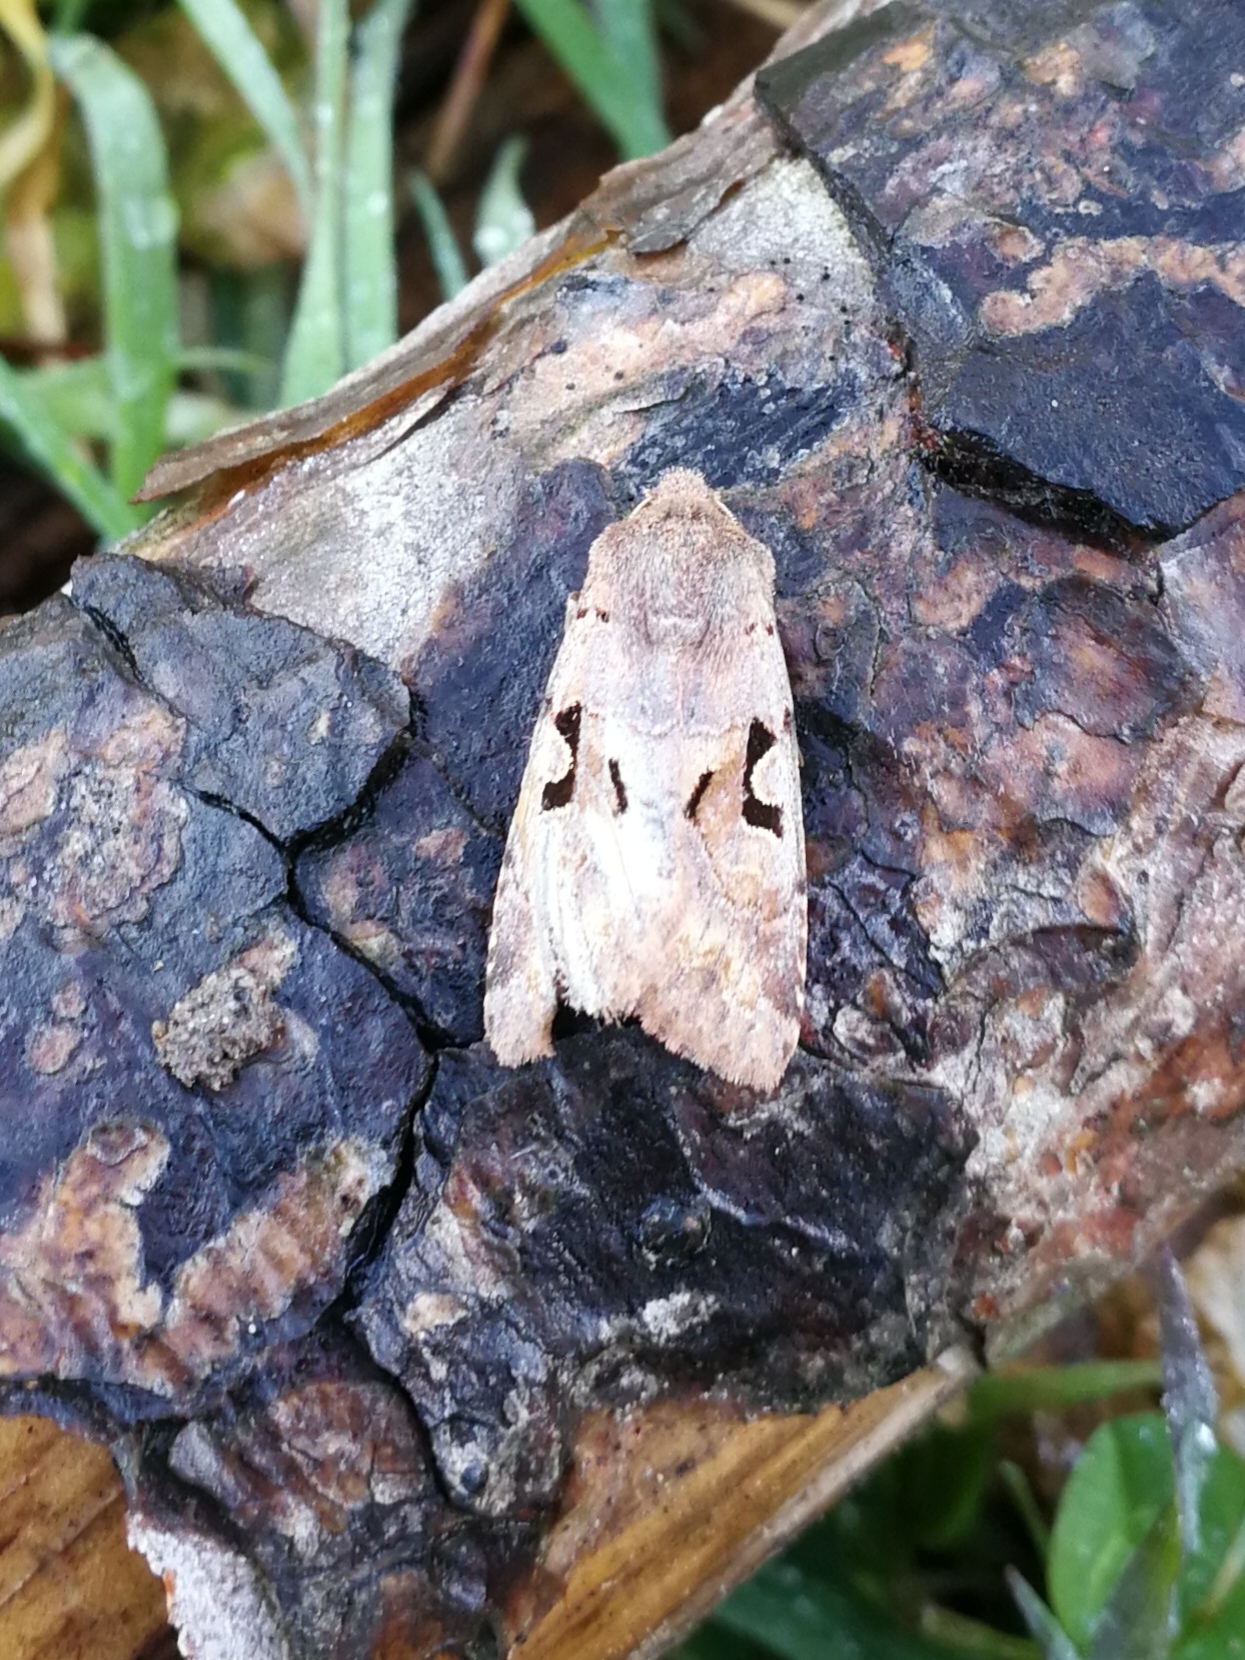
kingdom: Animalia
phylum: Arthropoda
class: Insecta
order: Lepidoptera
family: Noctuidae
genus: Orthosia
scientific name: Orthosia gothica
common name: Hebrew character
